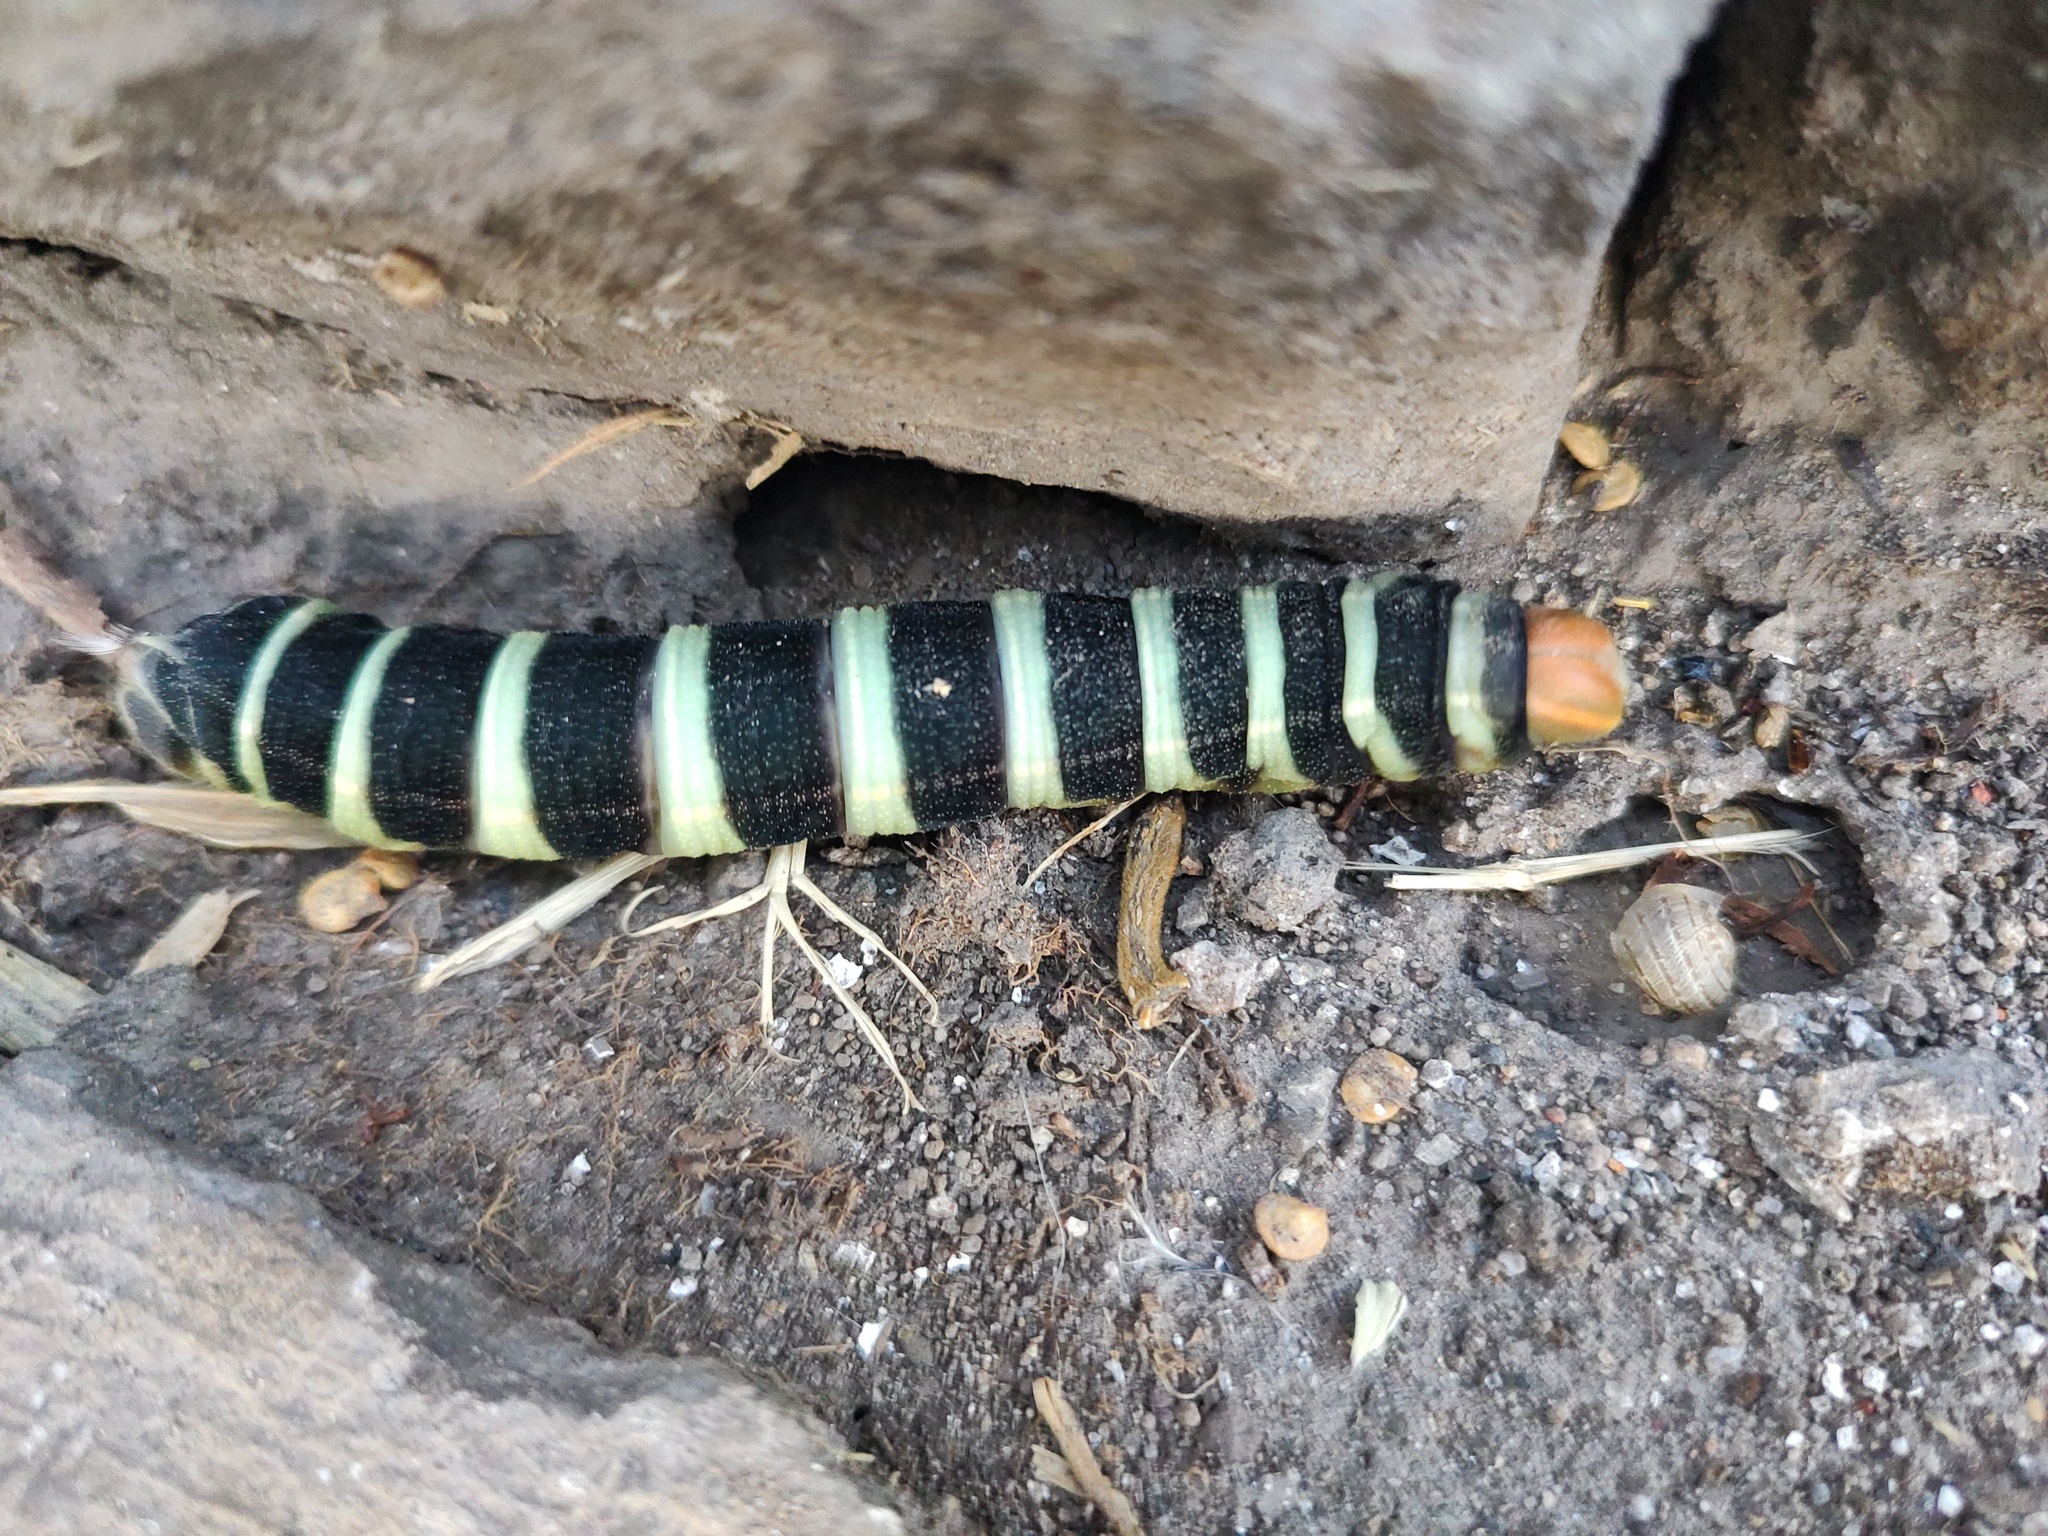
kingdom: Animalia
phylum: Arthropoda
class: Insecta
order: Lepidoptera
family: Sphingidae
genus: Pachylia
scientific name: Pachylia syces
